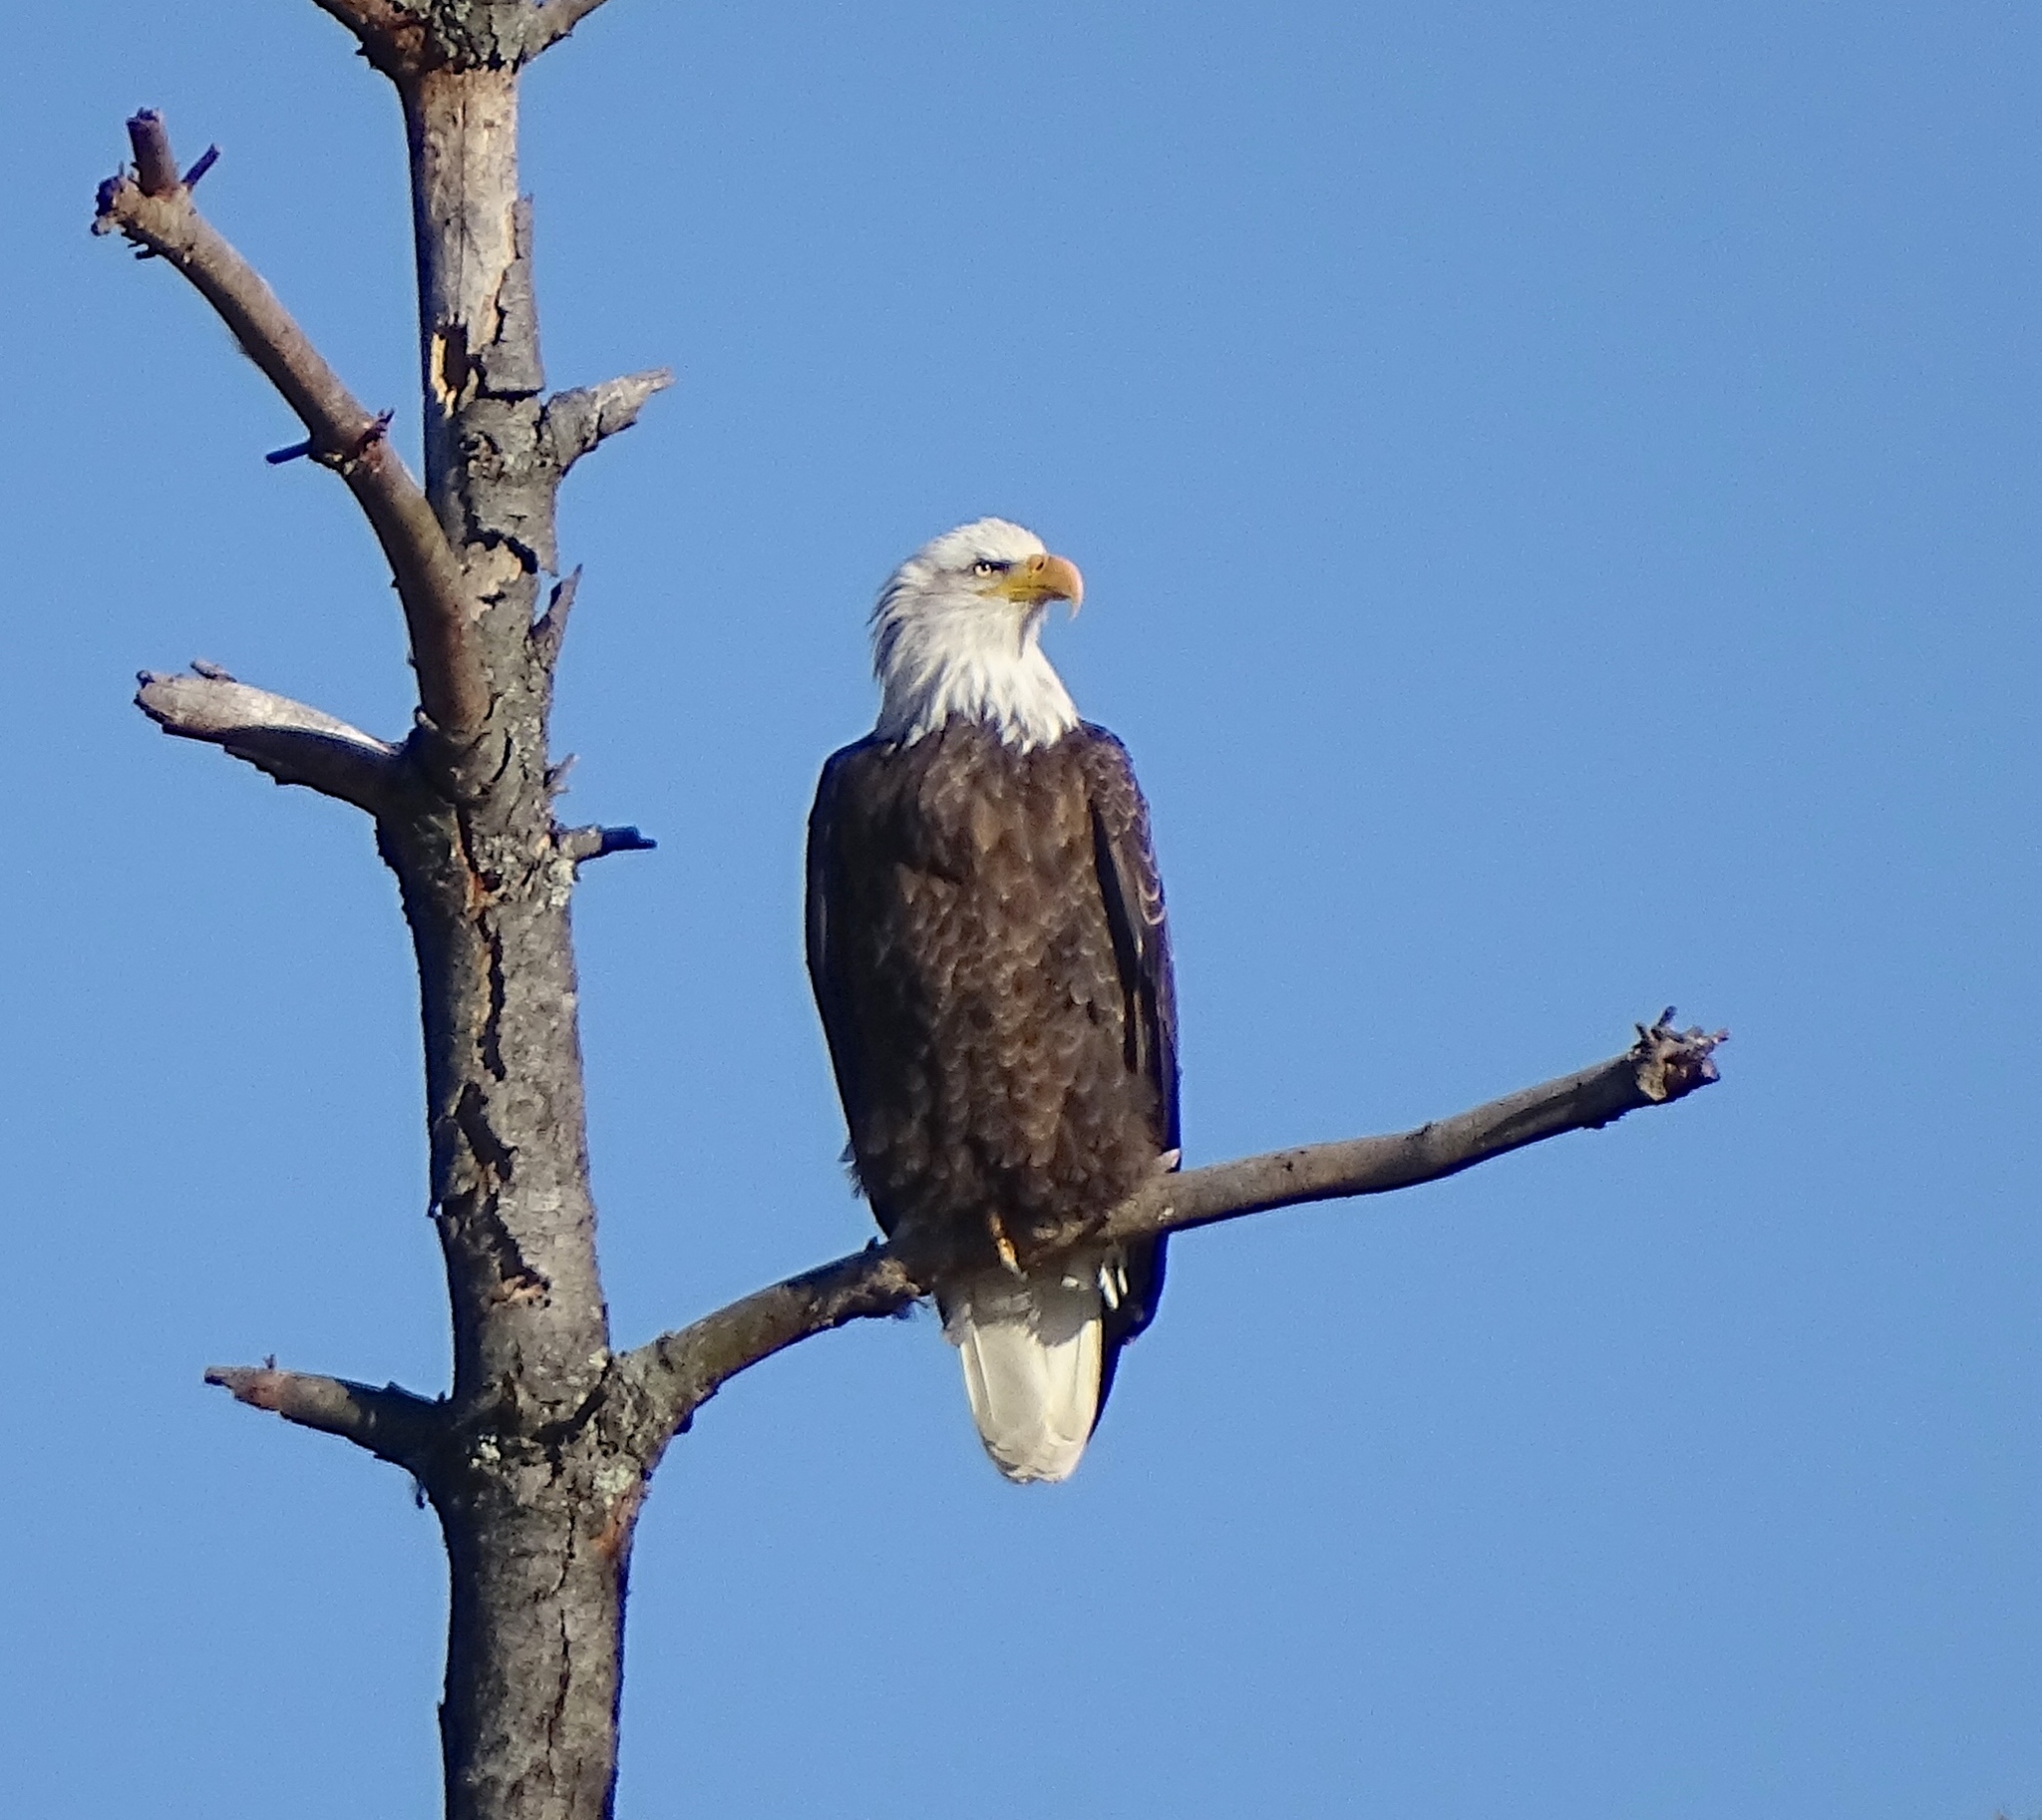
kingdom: Animalia
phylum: Chordata
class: Aves
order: Accipitriformes
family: Accipitridae
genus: Haliaeetus
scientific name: Haliaeetus leucocephalus
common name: Bald eagle
